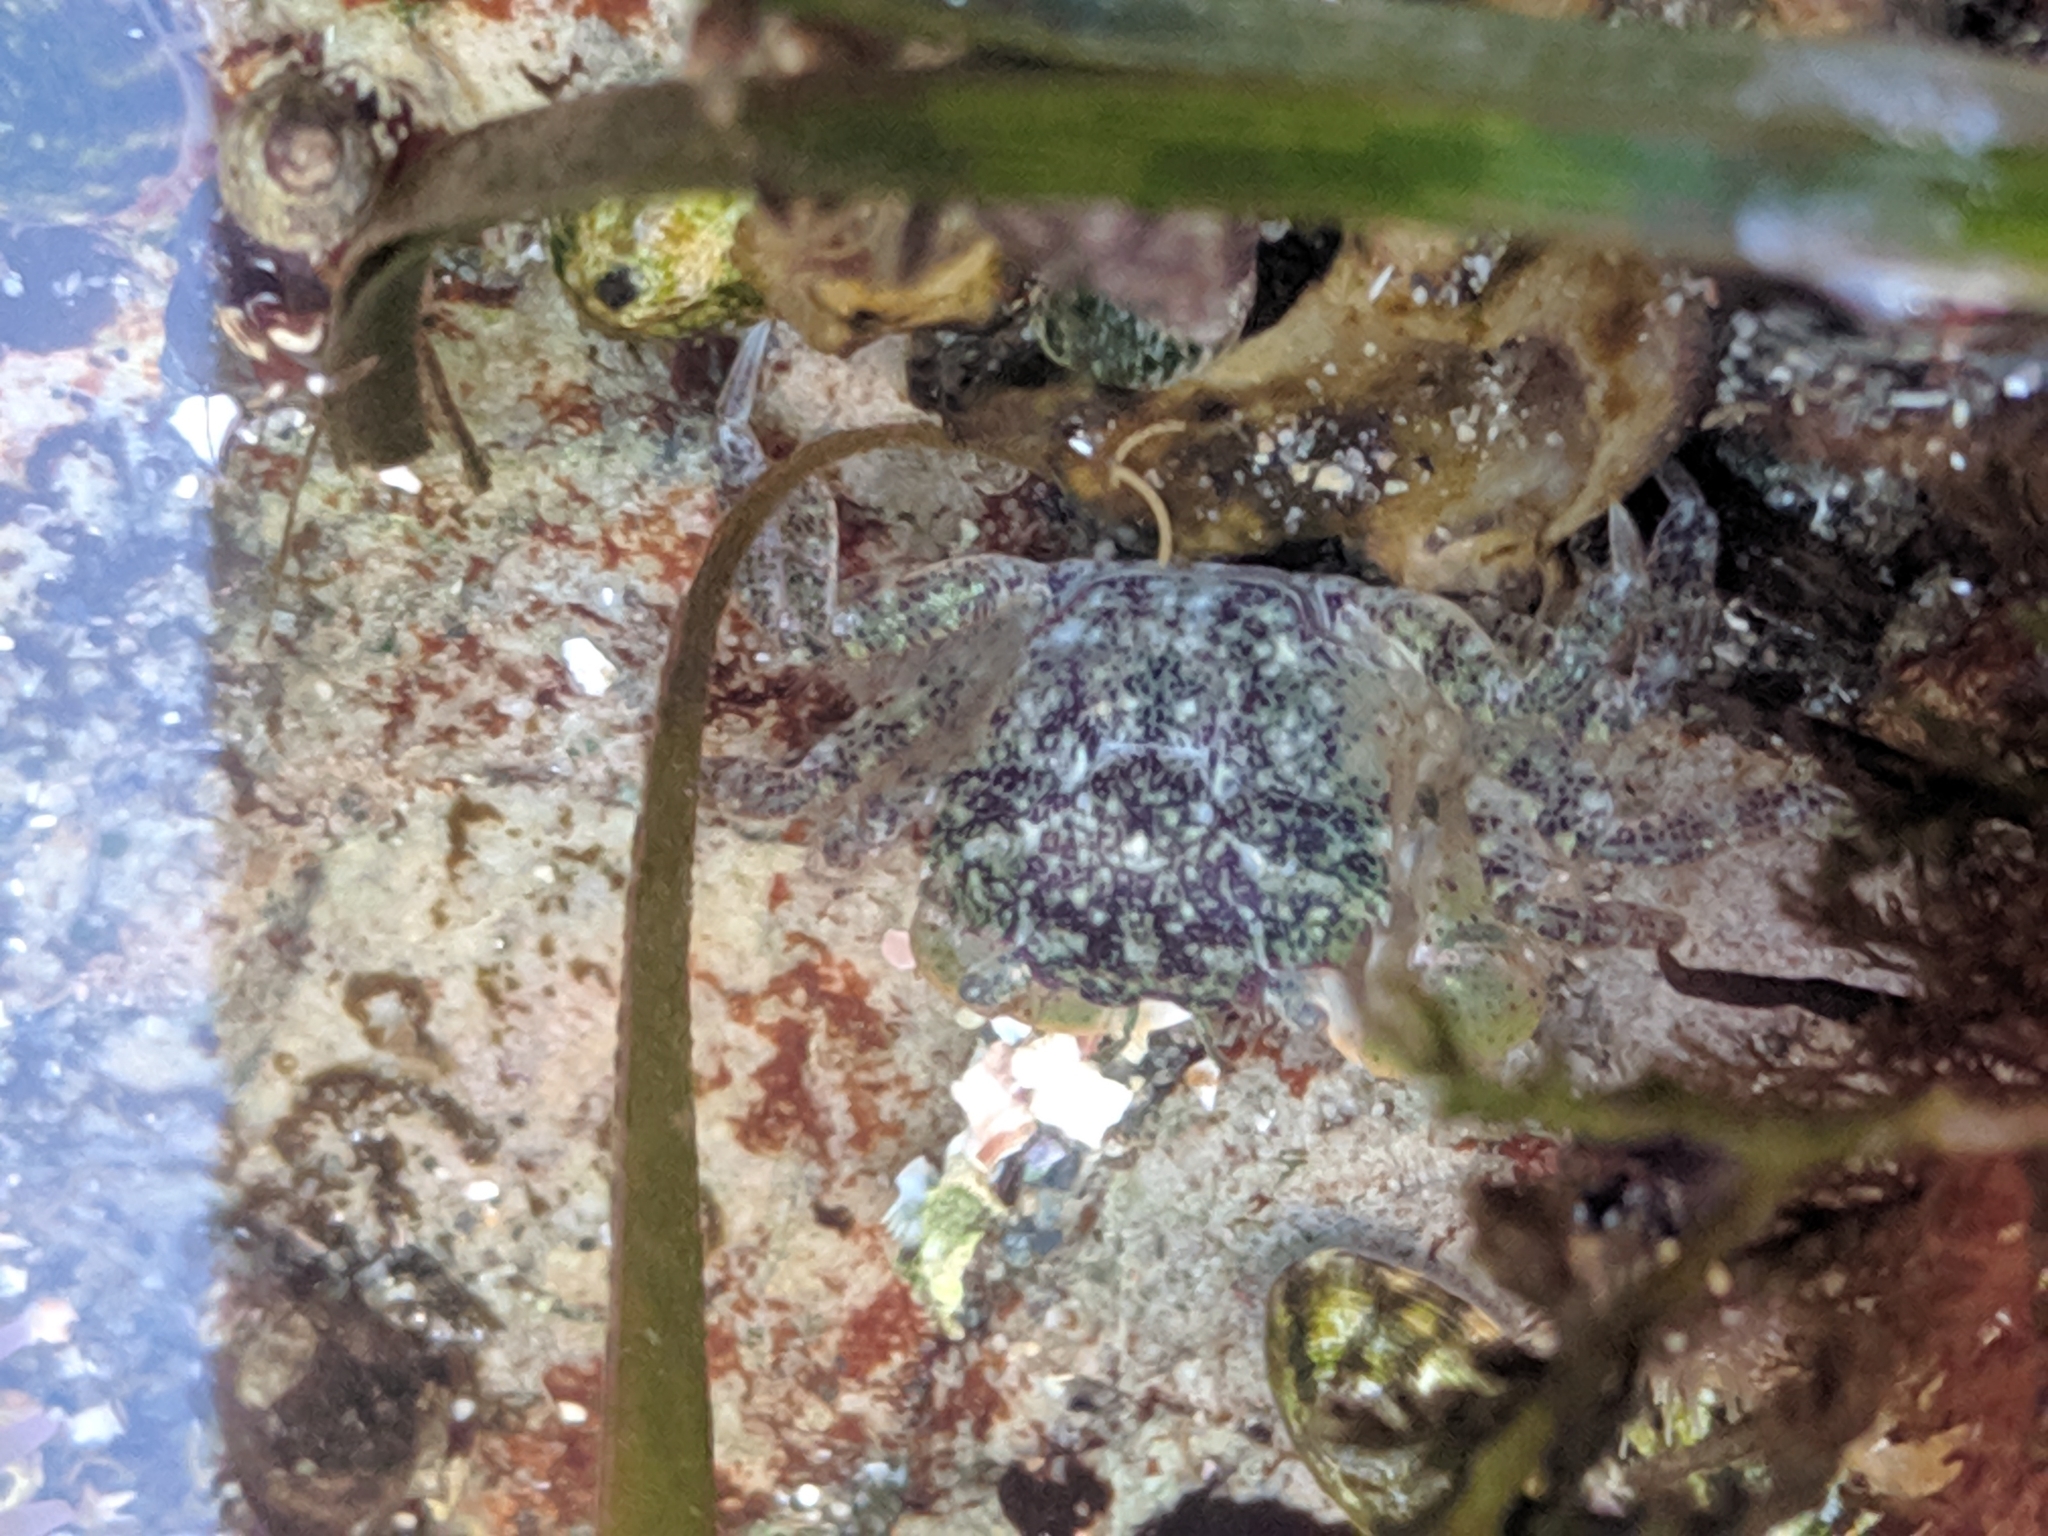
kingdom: Animalia
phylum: Arthropoda
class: Malacostraca
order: Decapoda
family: Varunidae
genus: Hemigrapsus
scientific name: Hemigrapsus oregonensis
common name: Yellow shore crab
